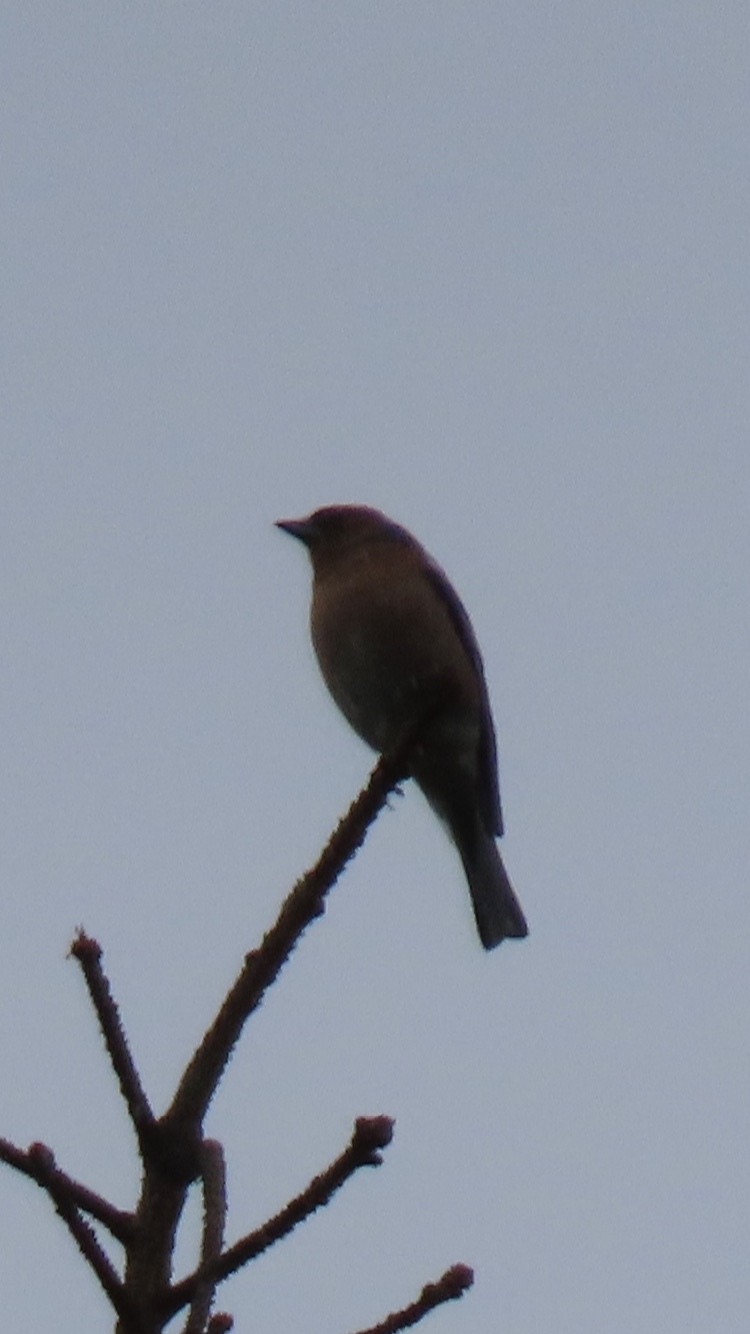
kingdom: Animalia
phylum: Chordata
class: Aves
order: Passeriformes
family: Fringillidae
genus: Fringilla
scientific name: Fringilla coelebs
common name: Common chaffinch
